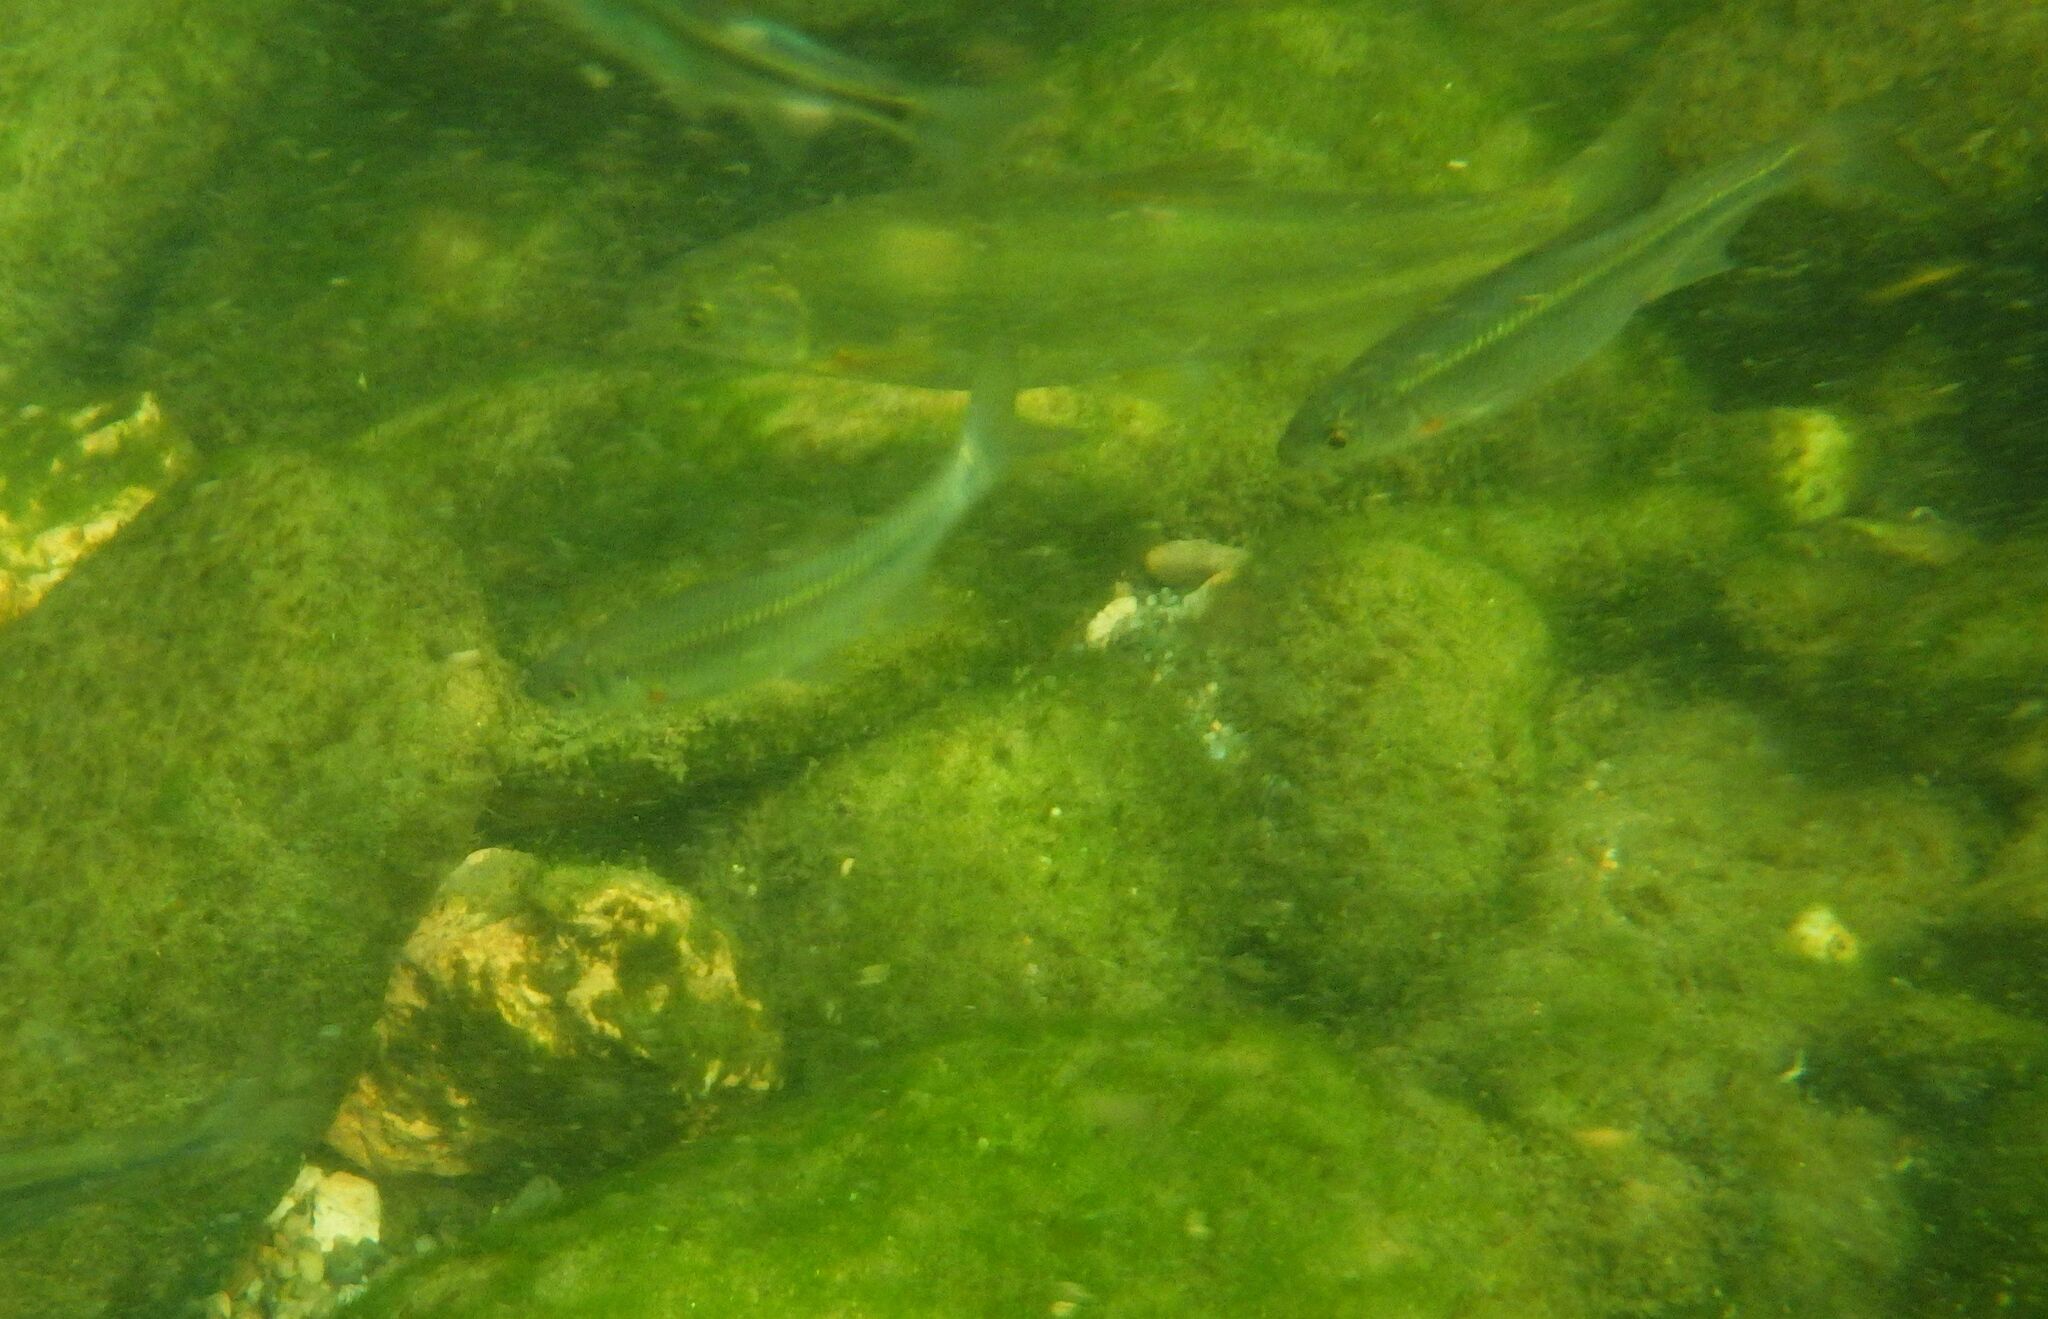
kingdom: Animalia
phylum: Chordata
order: Cypriniformes
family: Cyprinidae
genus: Alburnoides
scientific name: Alburnoides bipunctatus
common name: Spirlin
